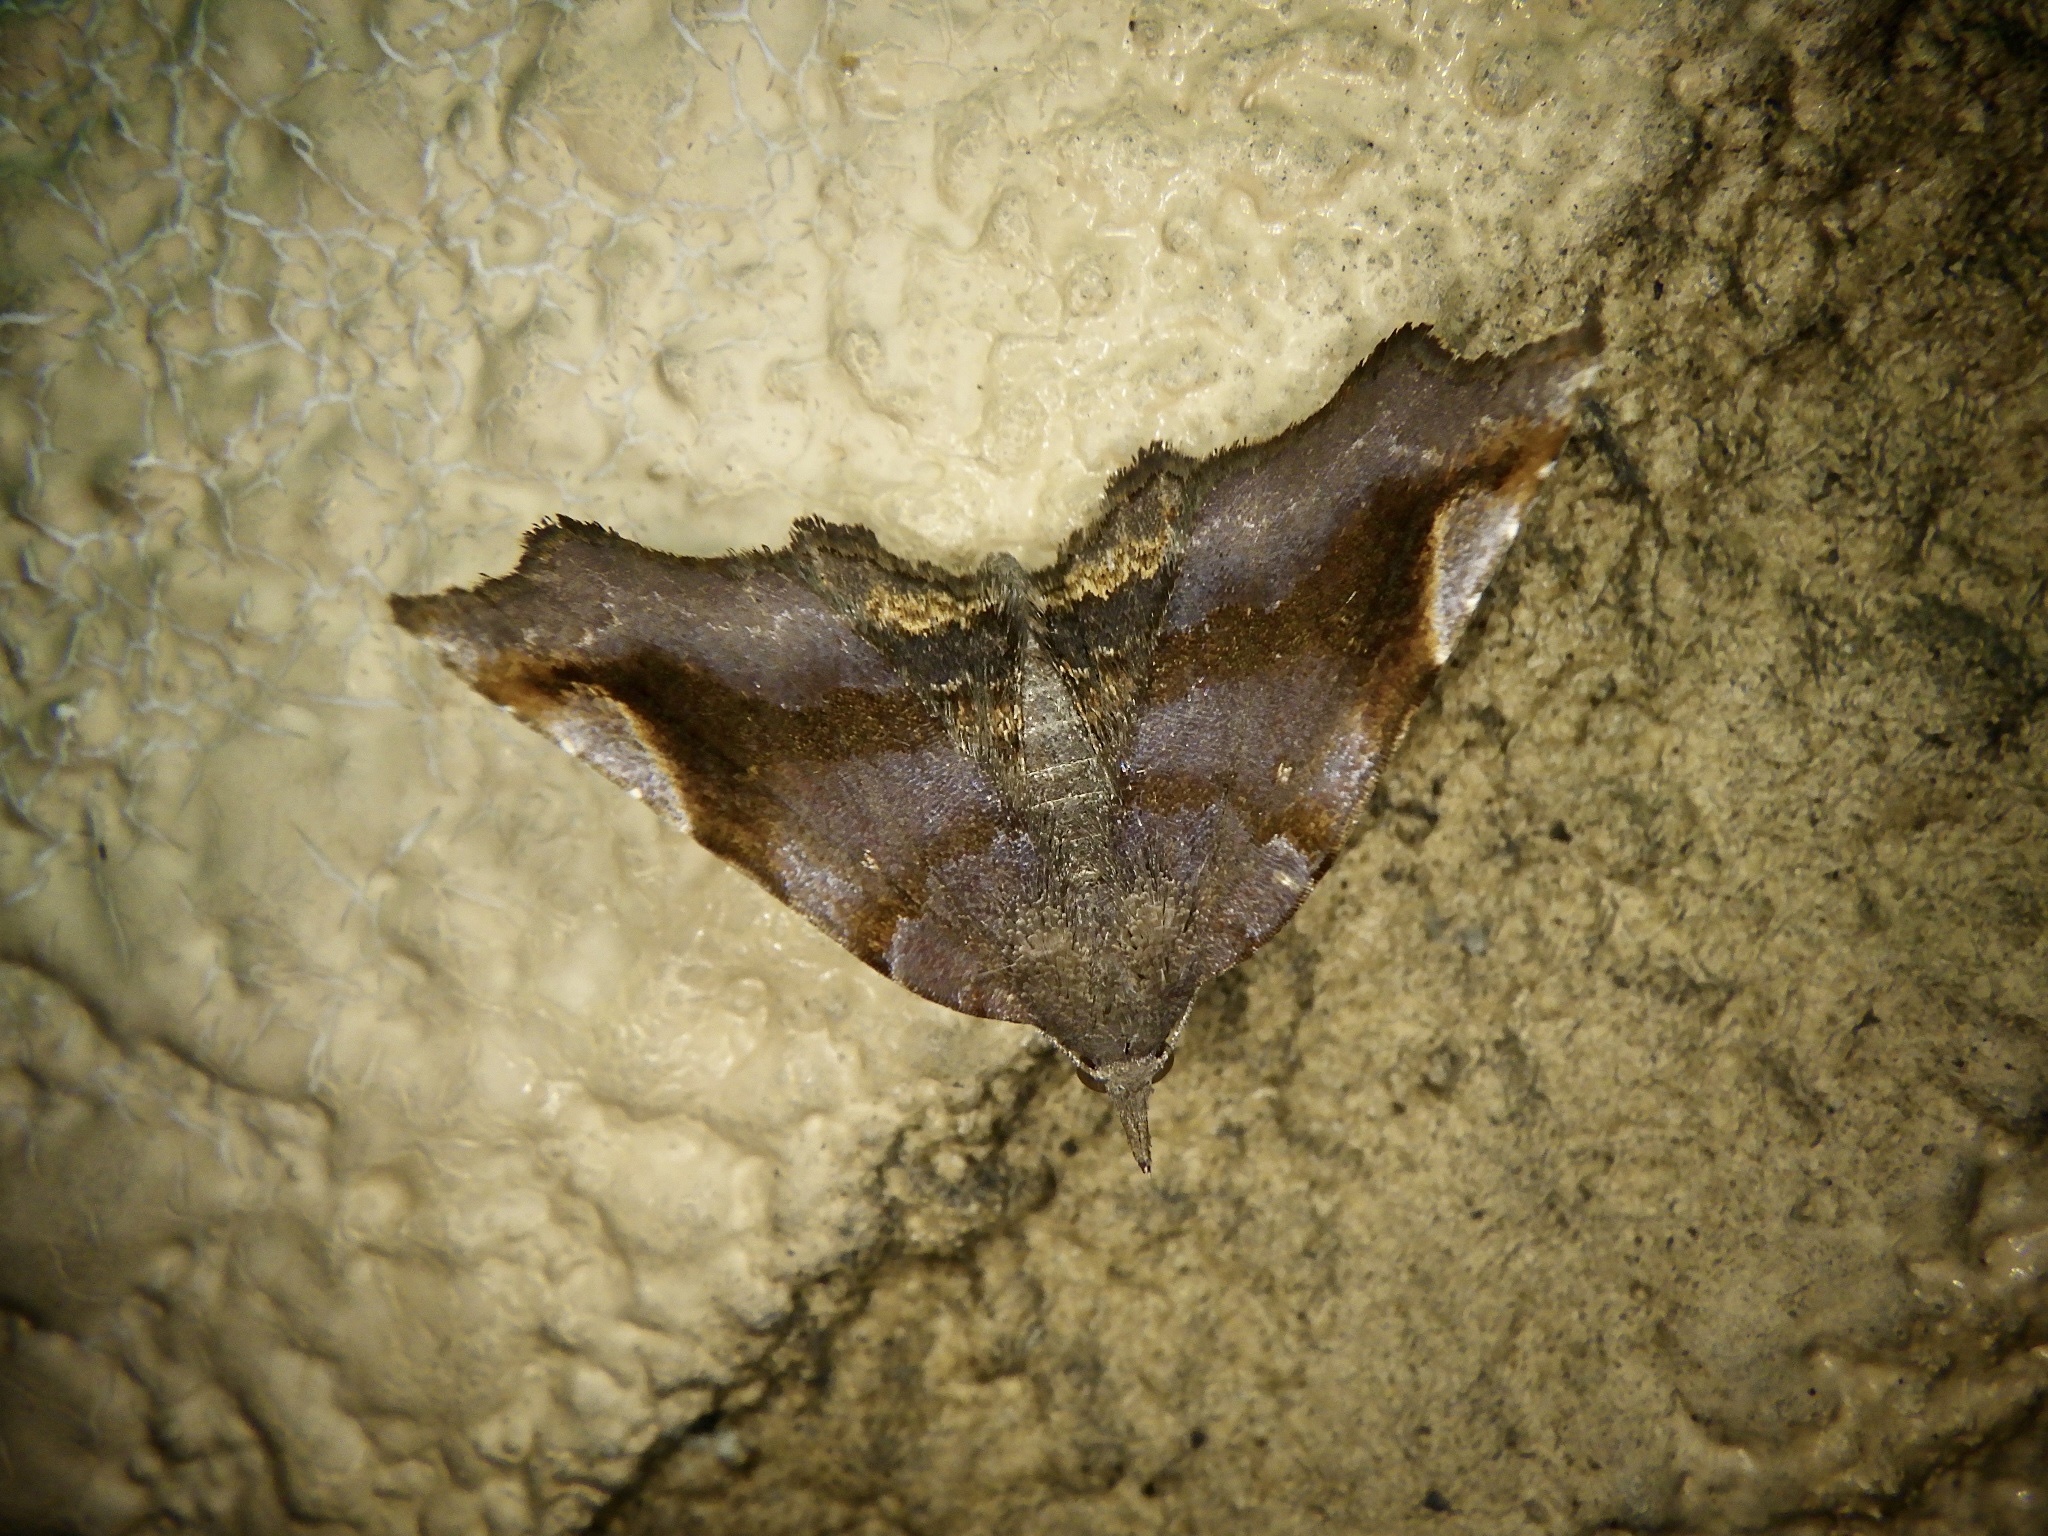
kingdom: Animalia
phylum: Arthropoda
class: Insecta
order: Lepidoptera
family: Erebidae
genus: Pangrapta
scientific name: Pangrapta obscurata
